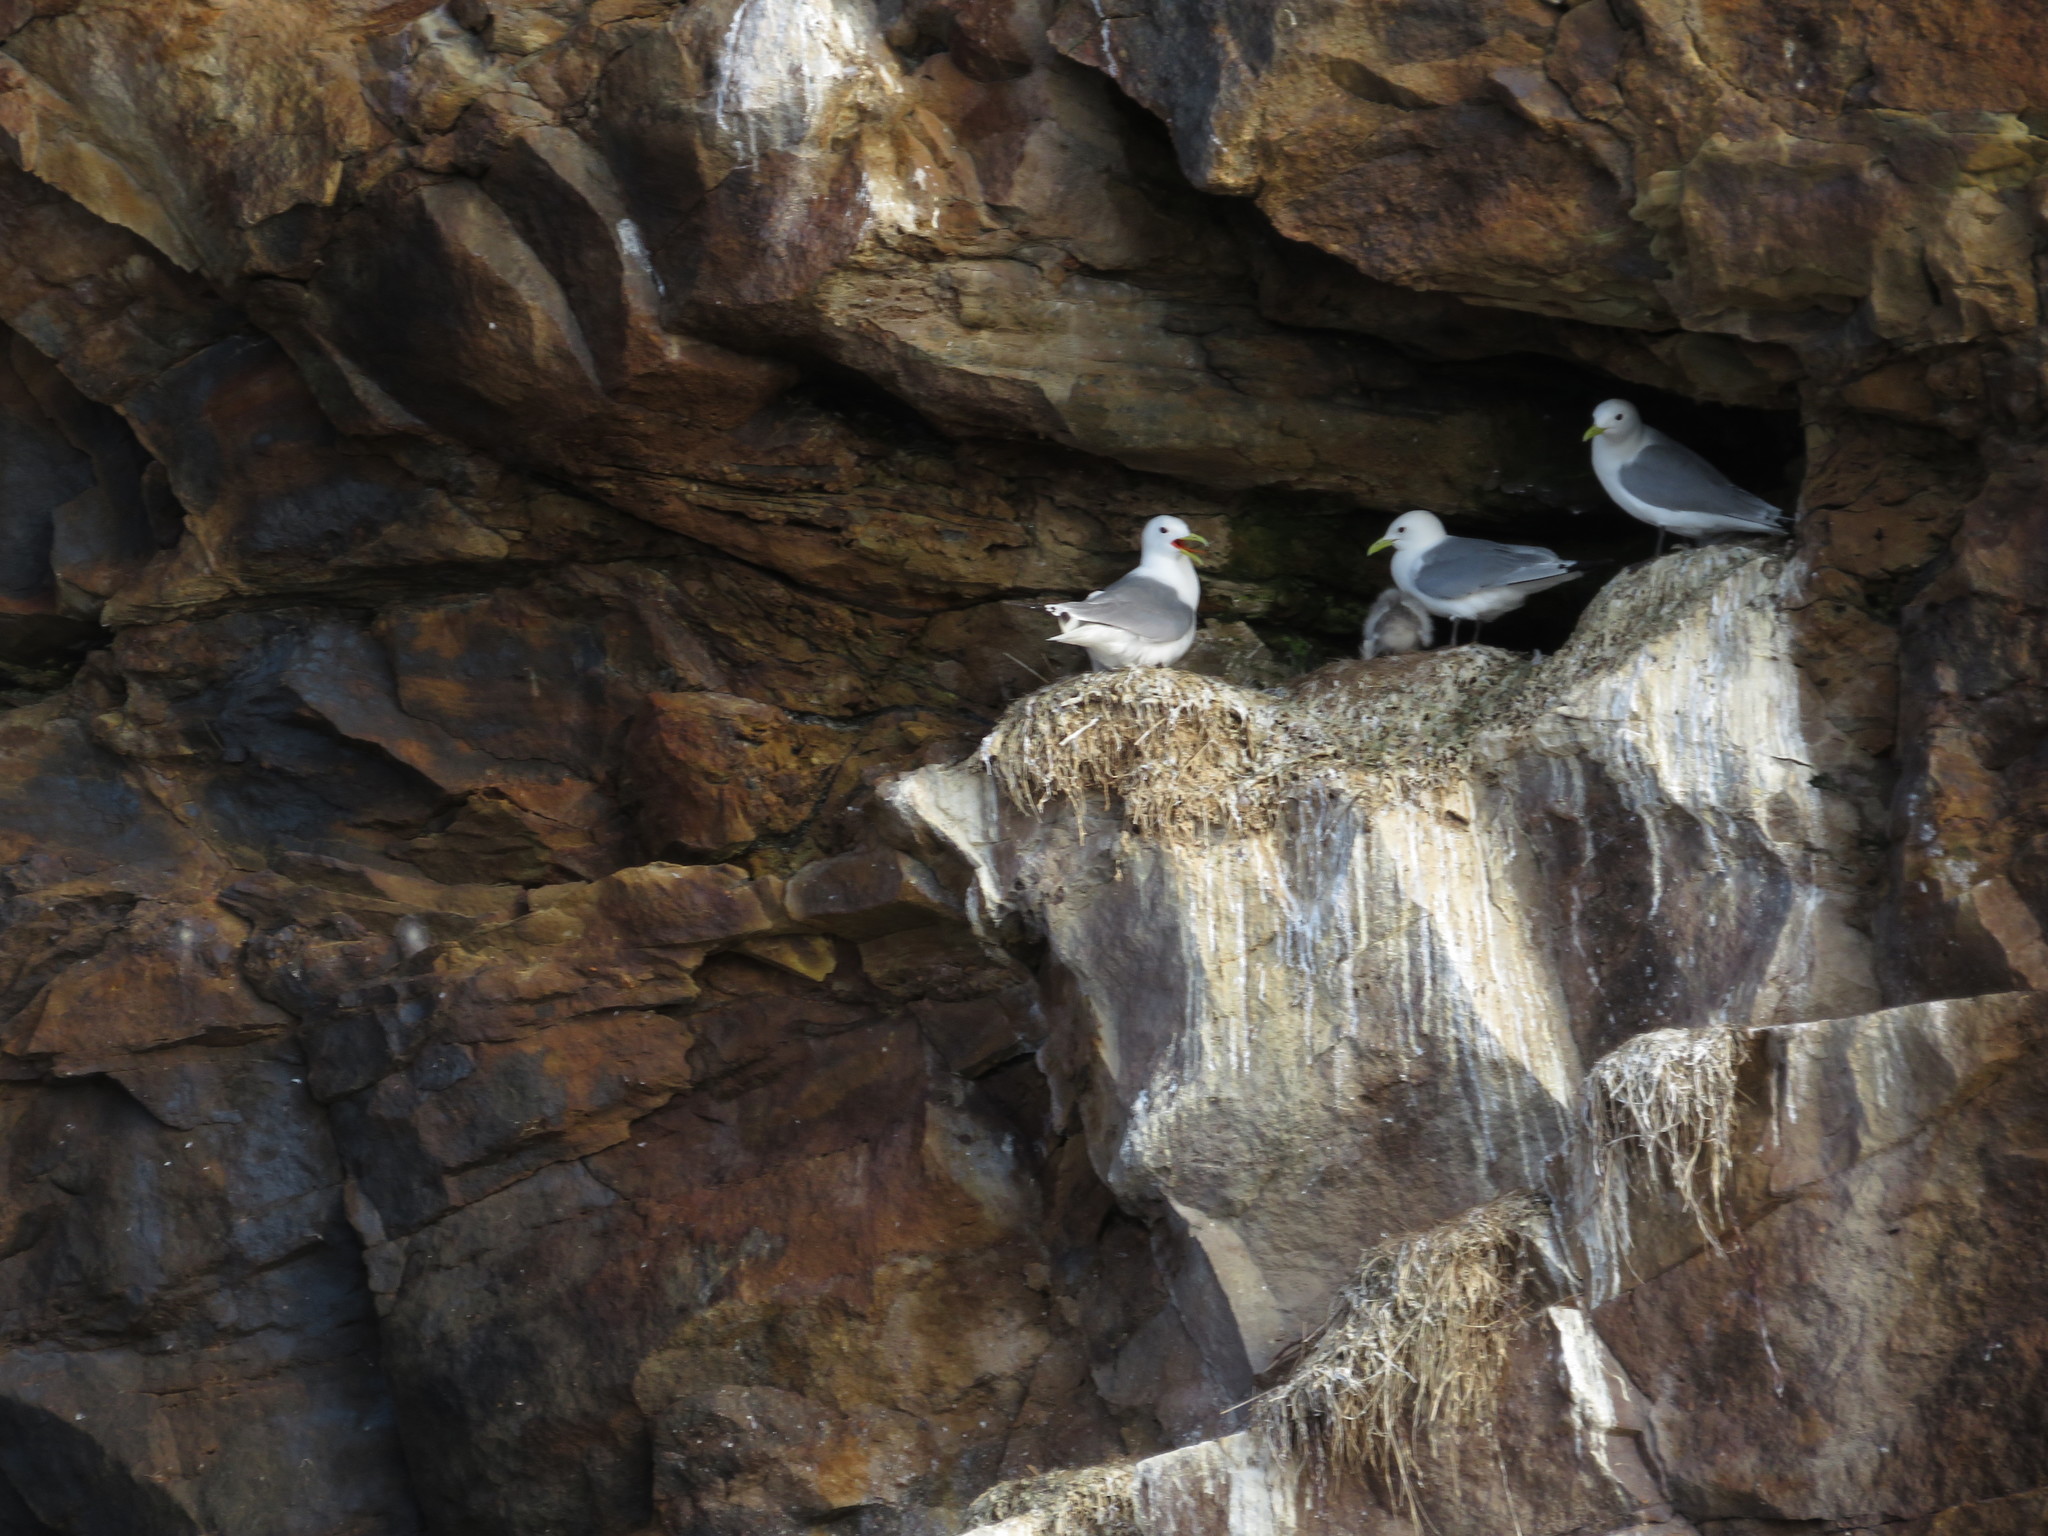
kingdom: Animalia
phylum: Chordata
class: Aves
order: Charadriiformes
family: Laridae
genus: Rissa
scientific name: Rissa tridactyla
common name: Black-legged kittiwake
